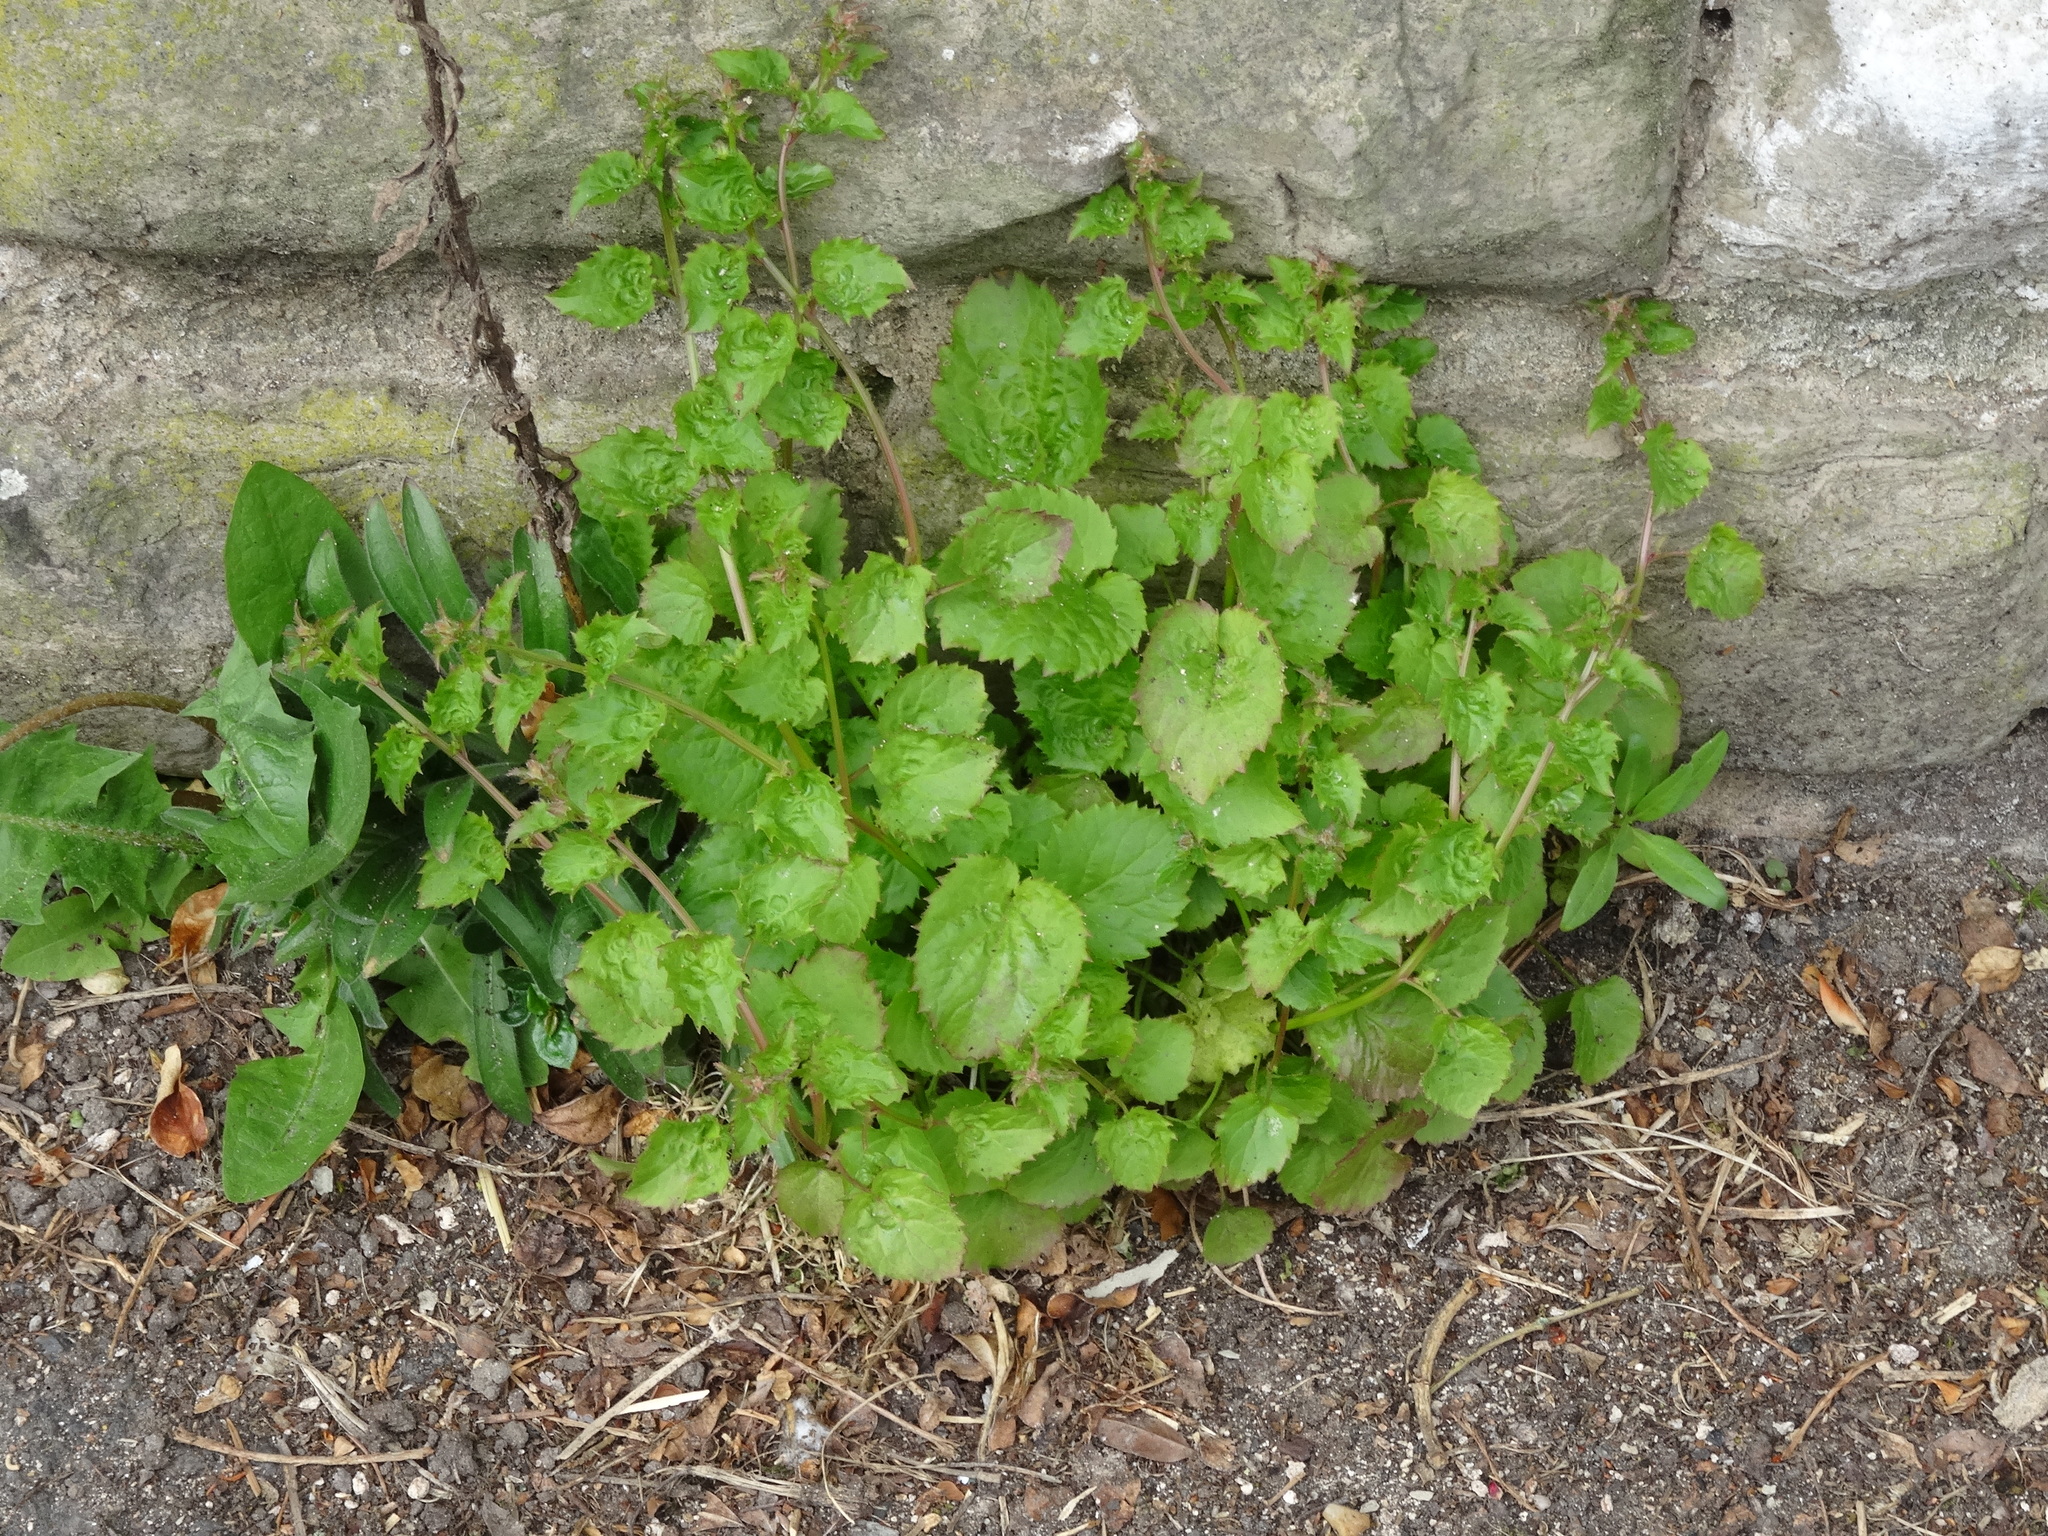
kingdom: Plantae
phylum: Tracheophyta
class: Magnoliopsida
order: Asterales
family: Campanulaceae
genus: Campanula
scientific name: Campanula poscharskyana
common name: Trailing bellflower
